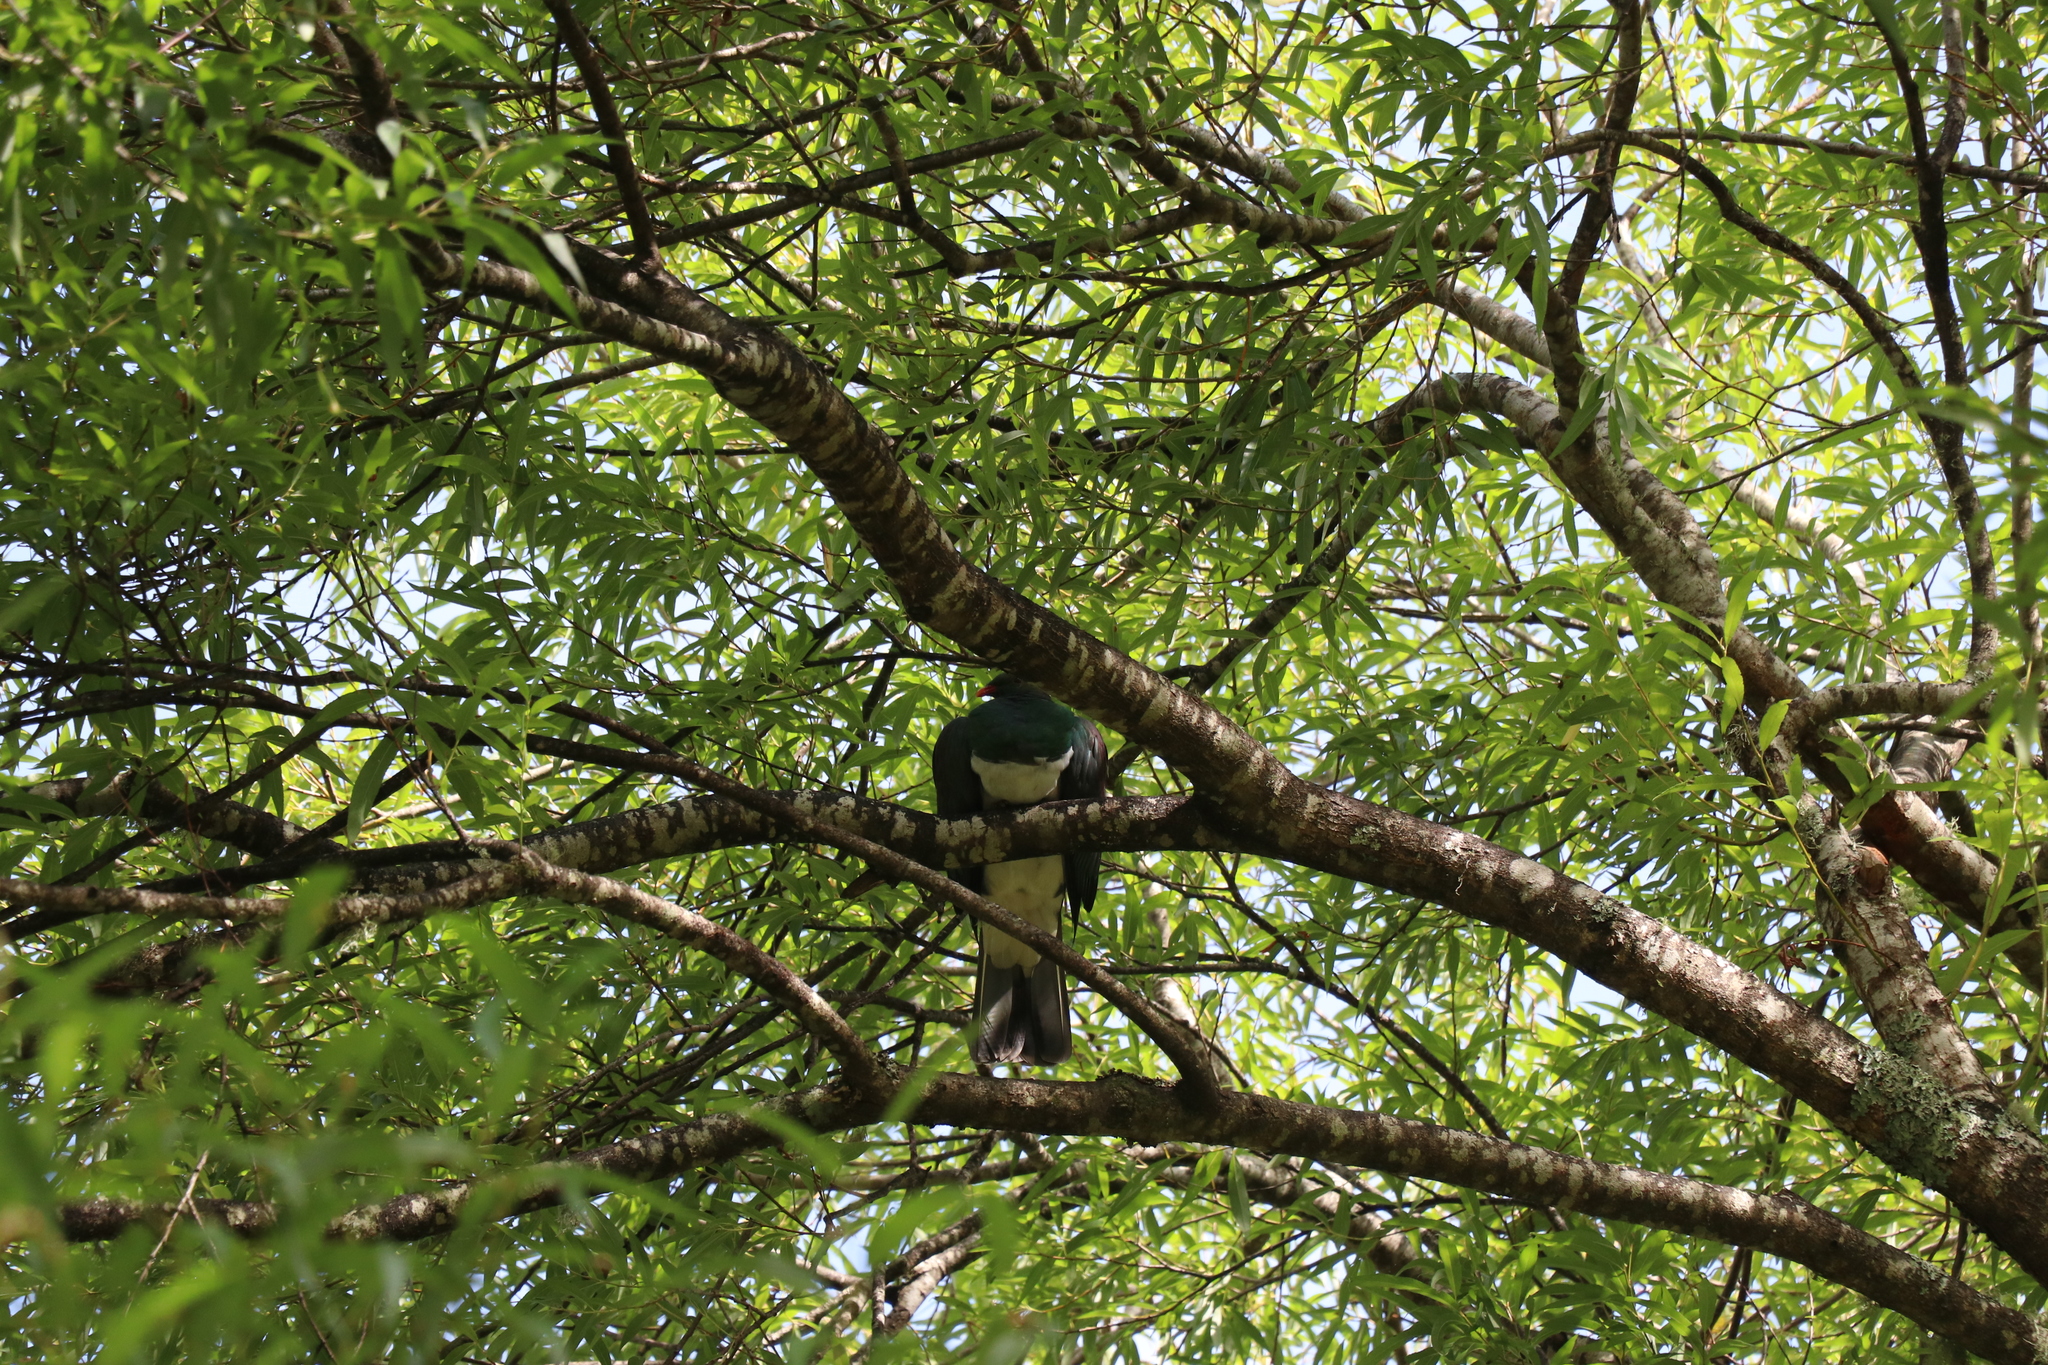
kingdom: Animalia
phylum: Chordata
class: Aves
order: Columbiformes
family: Columbidae
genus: Hemiphaga
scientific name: Hemiphaga novaeseelandiae
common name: New zealand pigeon
